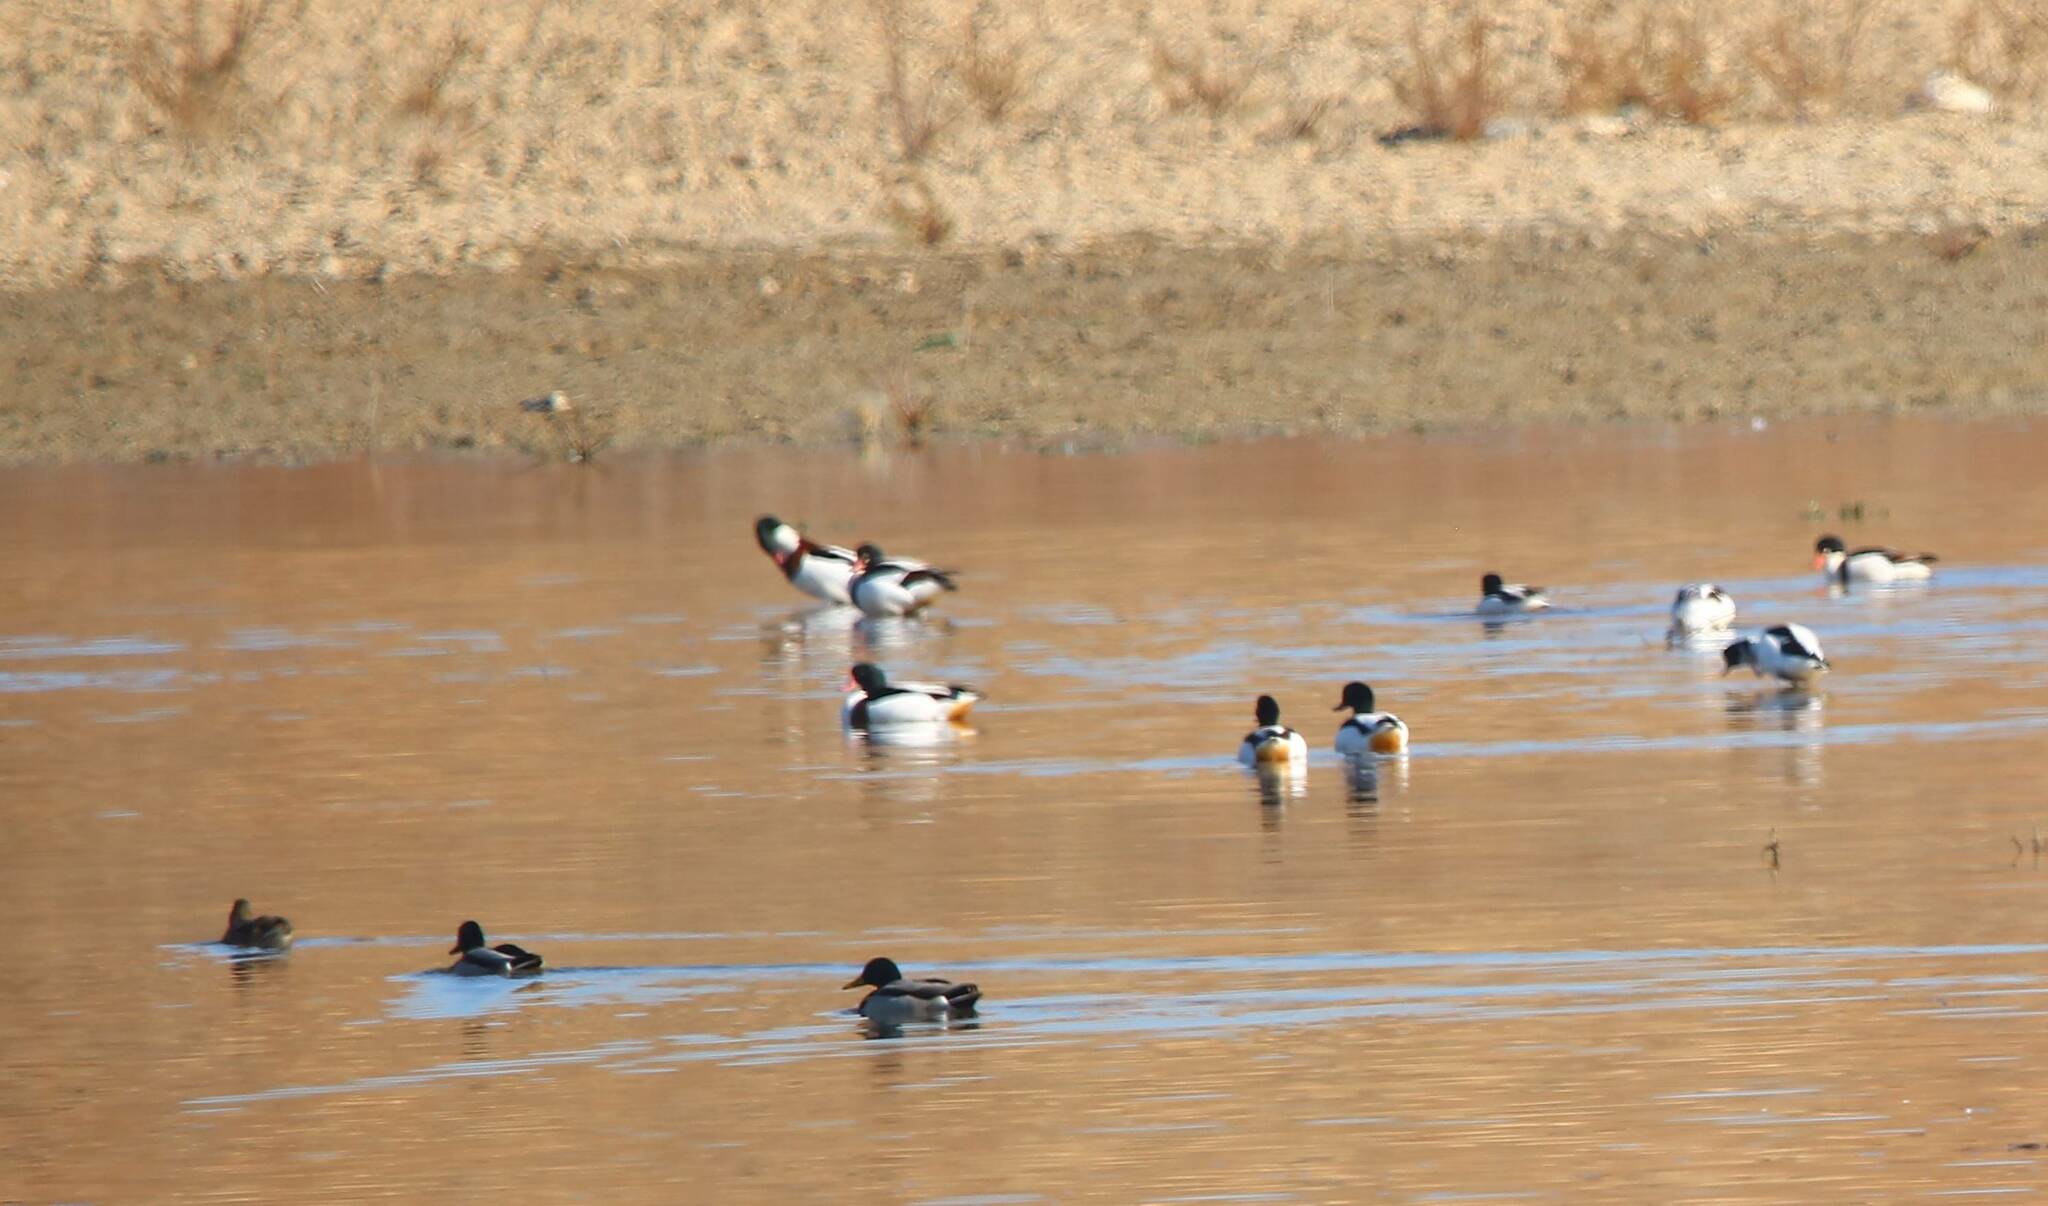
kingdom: Animalia
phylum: Chordata
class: Aves
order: Anseriformes
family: Anatidae
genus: Tadorna
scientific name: Tadorna tadorna
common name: Common shelduck
